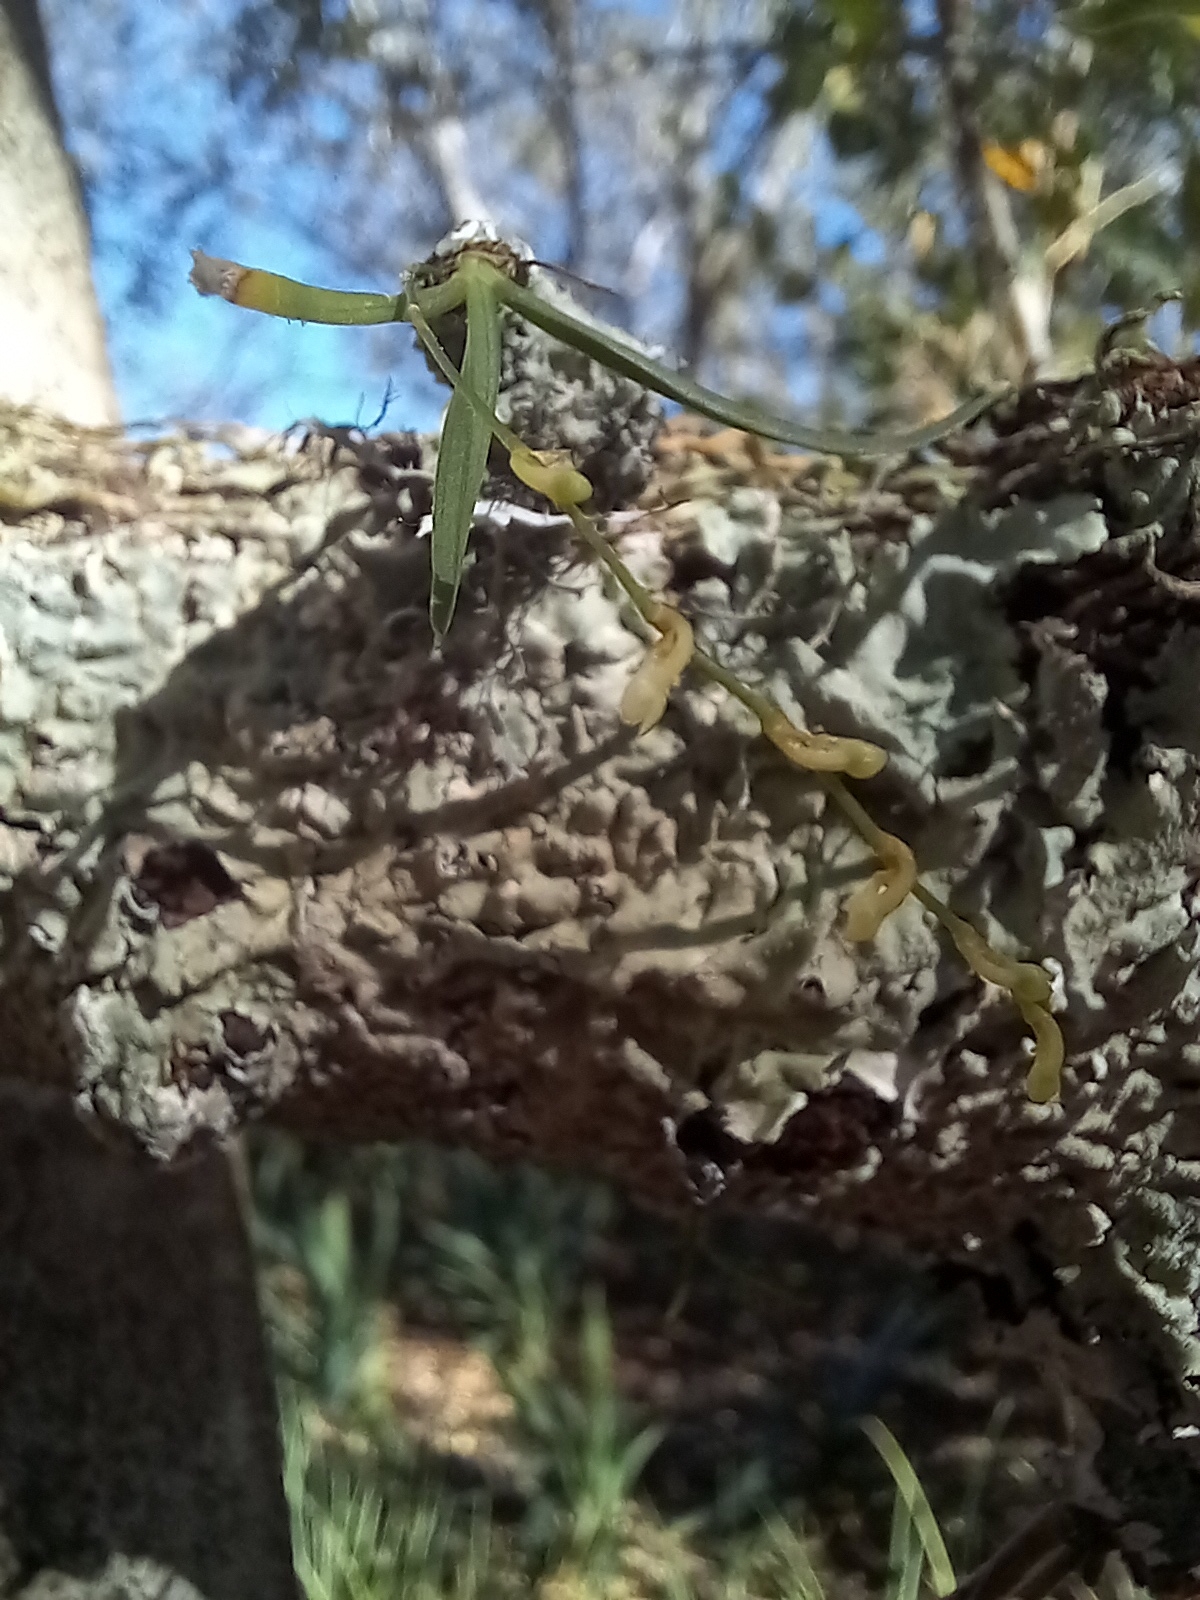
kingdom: Plantae
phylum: Tracheophyta
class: Liliopsida
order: Asparagales
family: Orchidaceae
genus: Angraecum
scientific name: Angraecum pusillum
